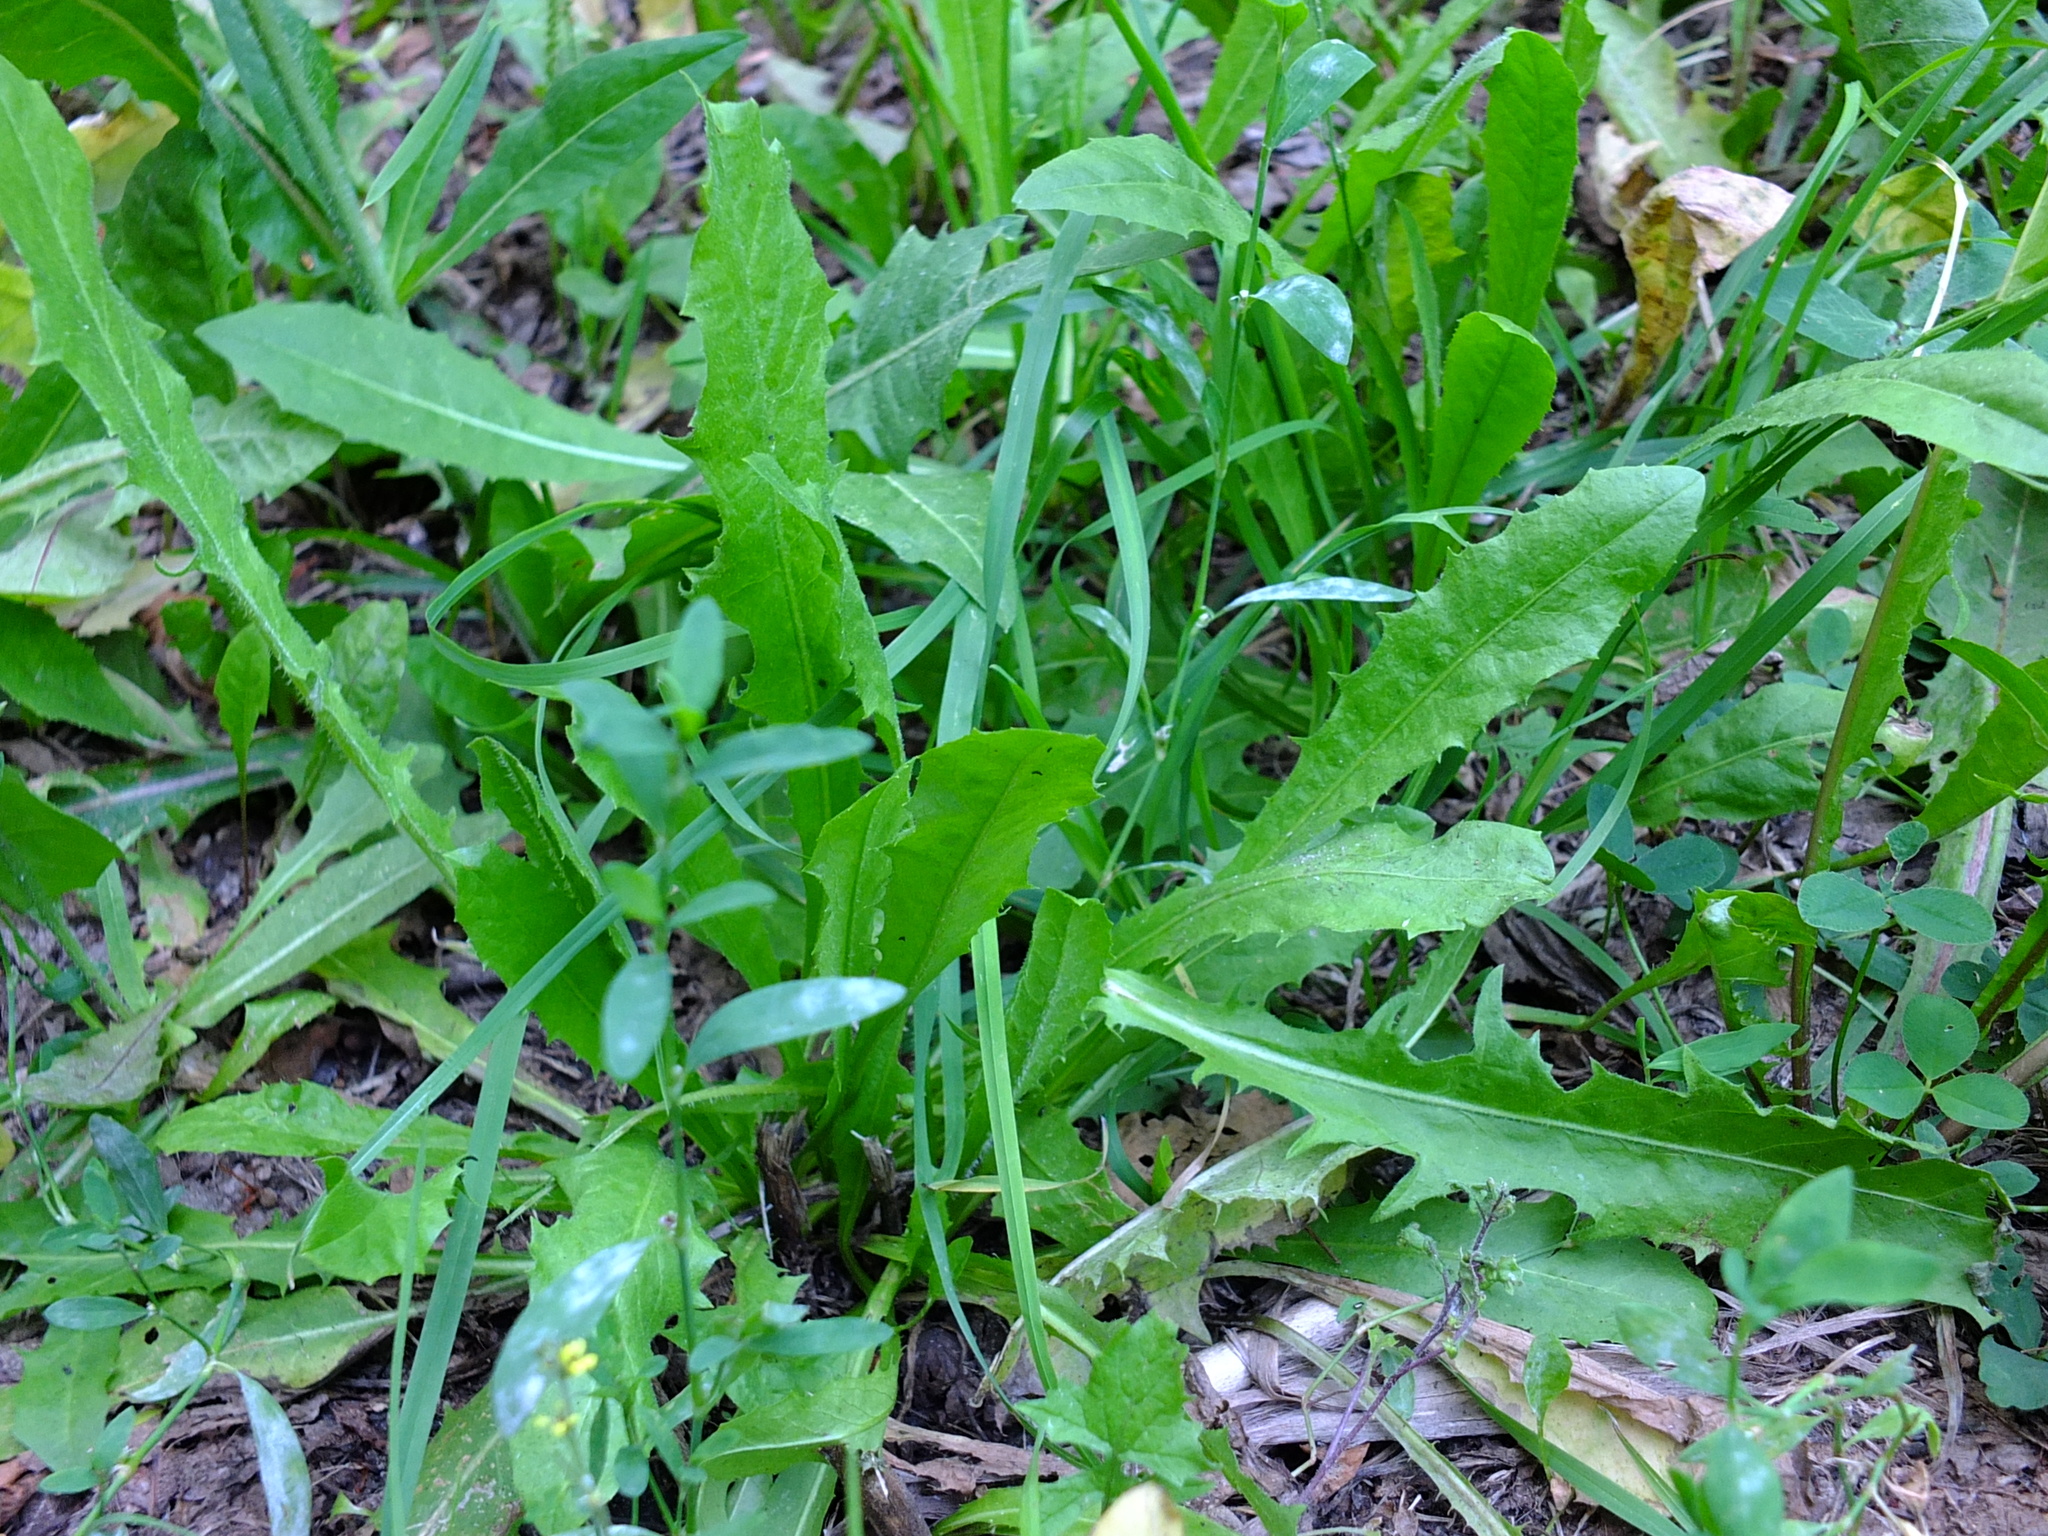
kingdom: Plantae
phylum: Tracheophyta
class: Magnoliopsida
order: Asterales
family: Asteraceae
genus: Taraxacum
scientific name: Taraxacum officinale
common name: Common dandelion
